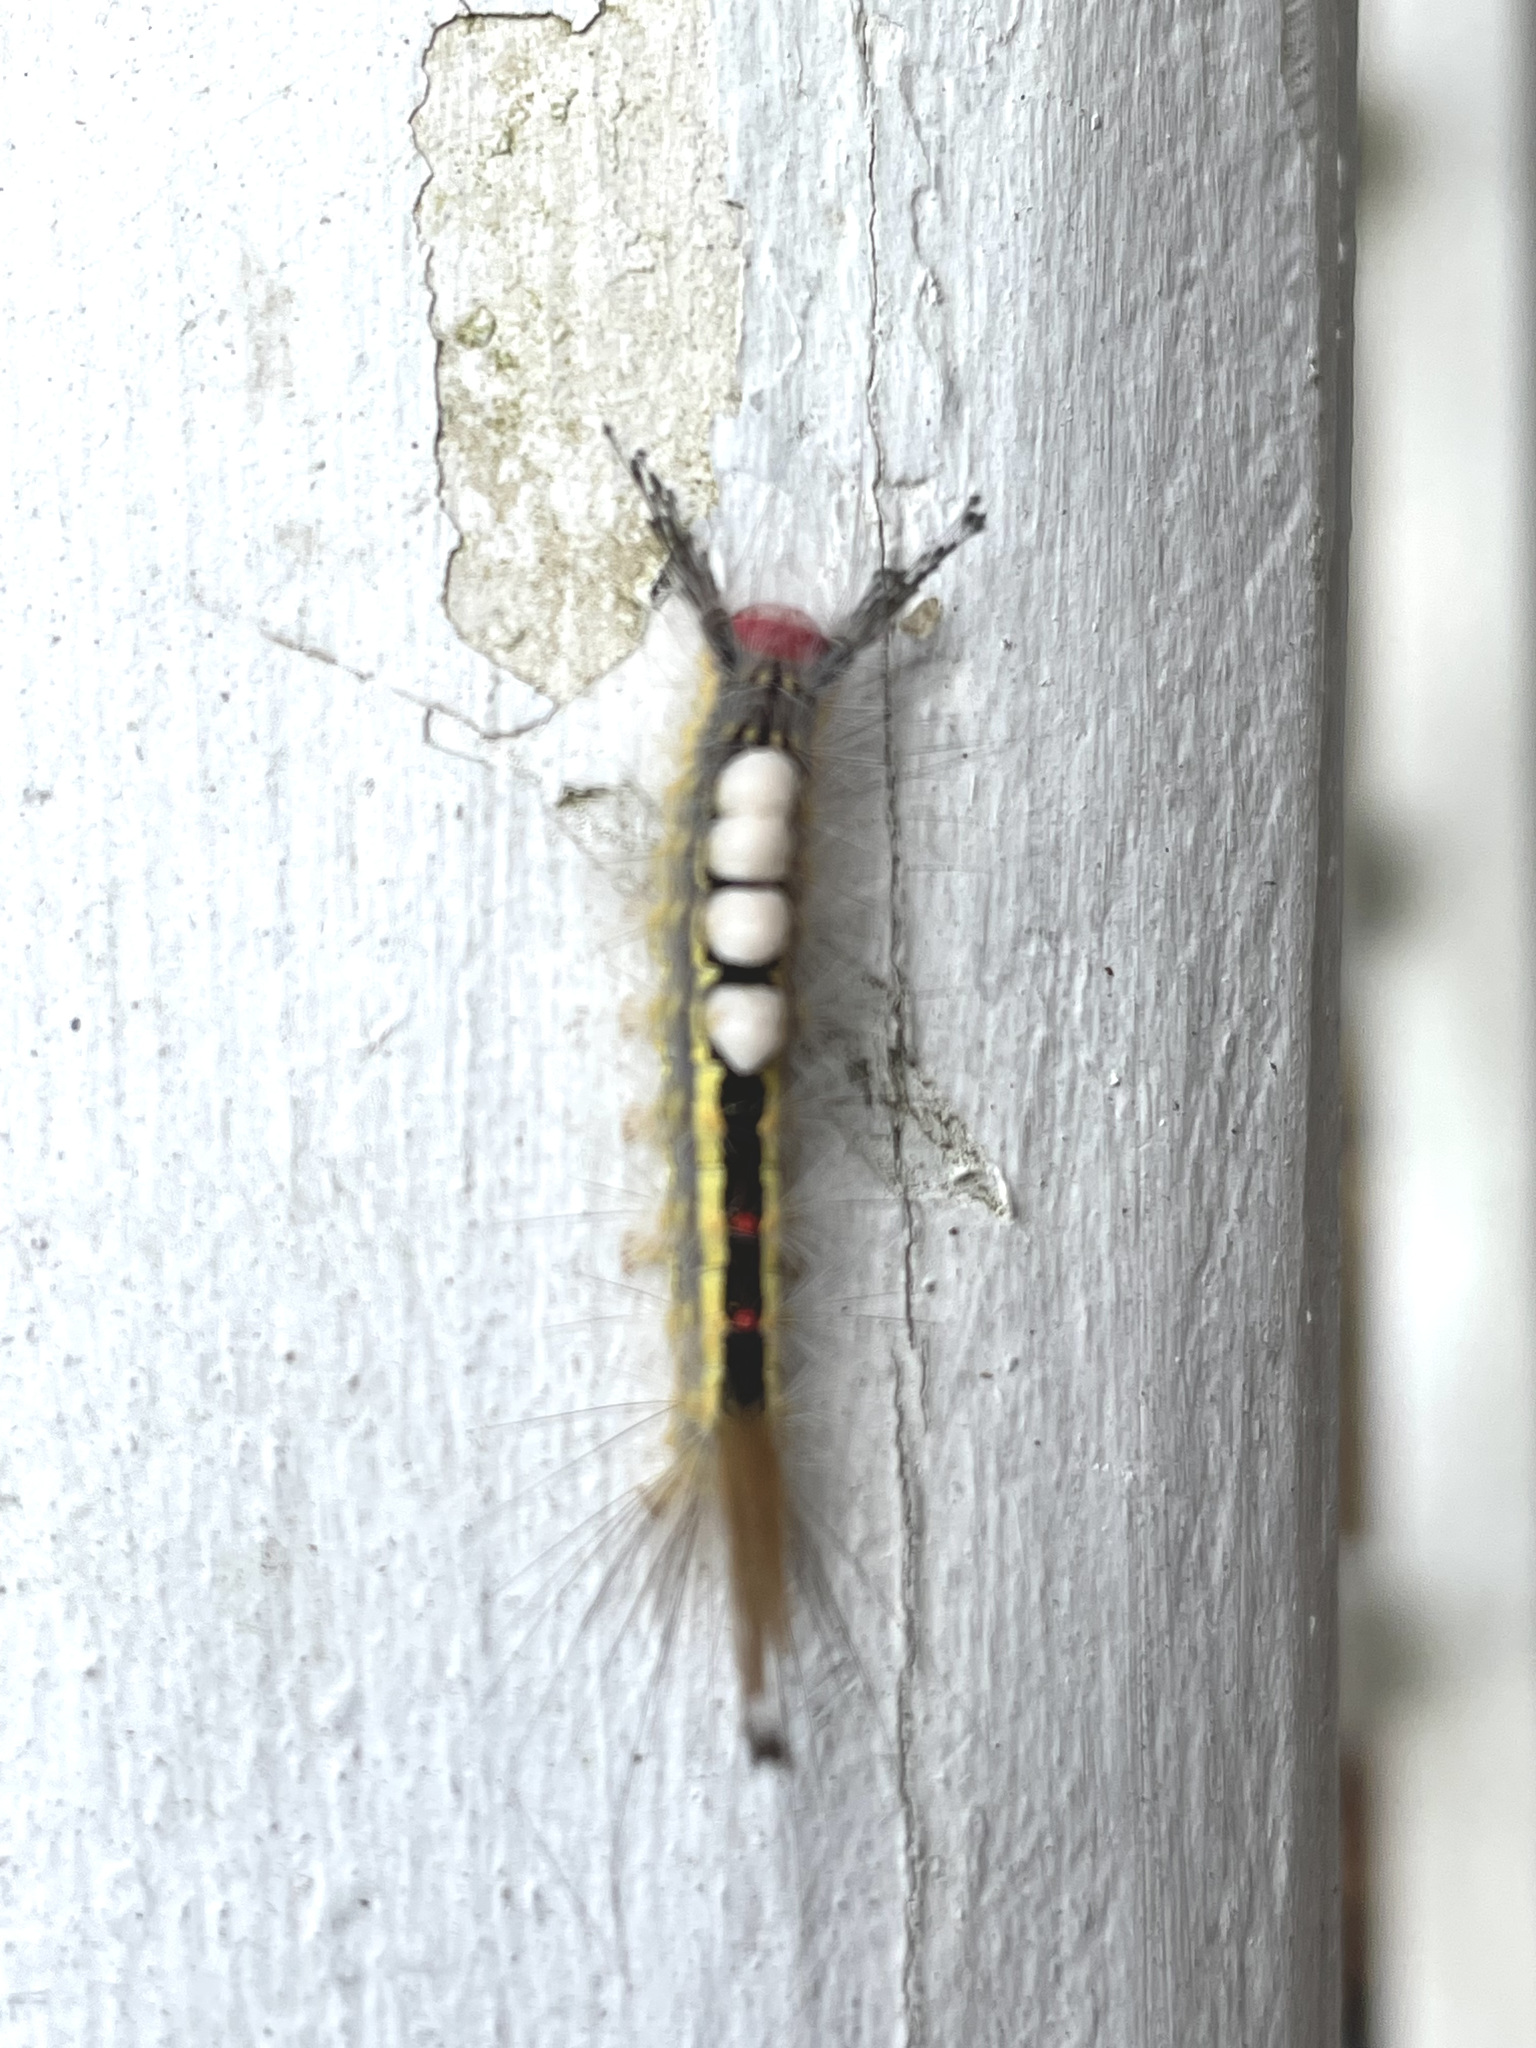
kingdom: Animalia
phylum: Arthropoda
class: Insecta
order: Lepidoptera
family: Erebidae
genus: Orgyia
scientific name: Orgyia leucostigma
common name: White-marked tussock moth
